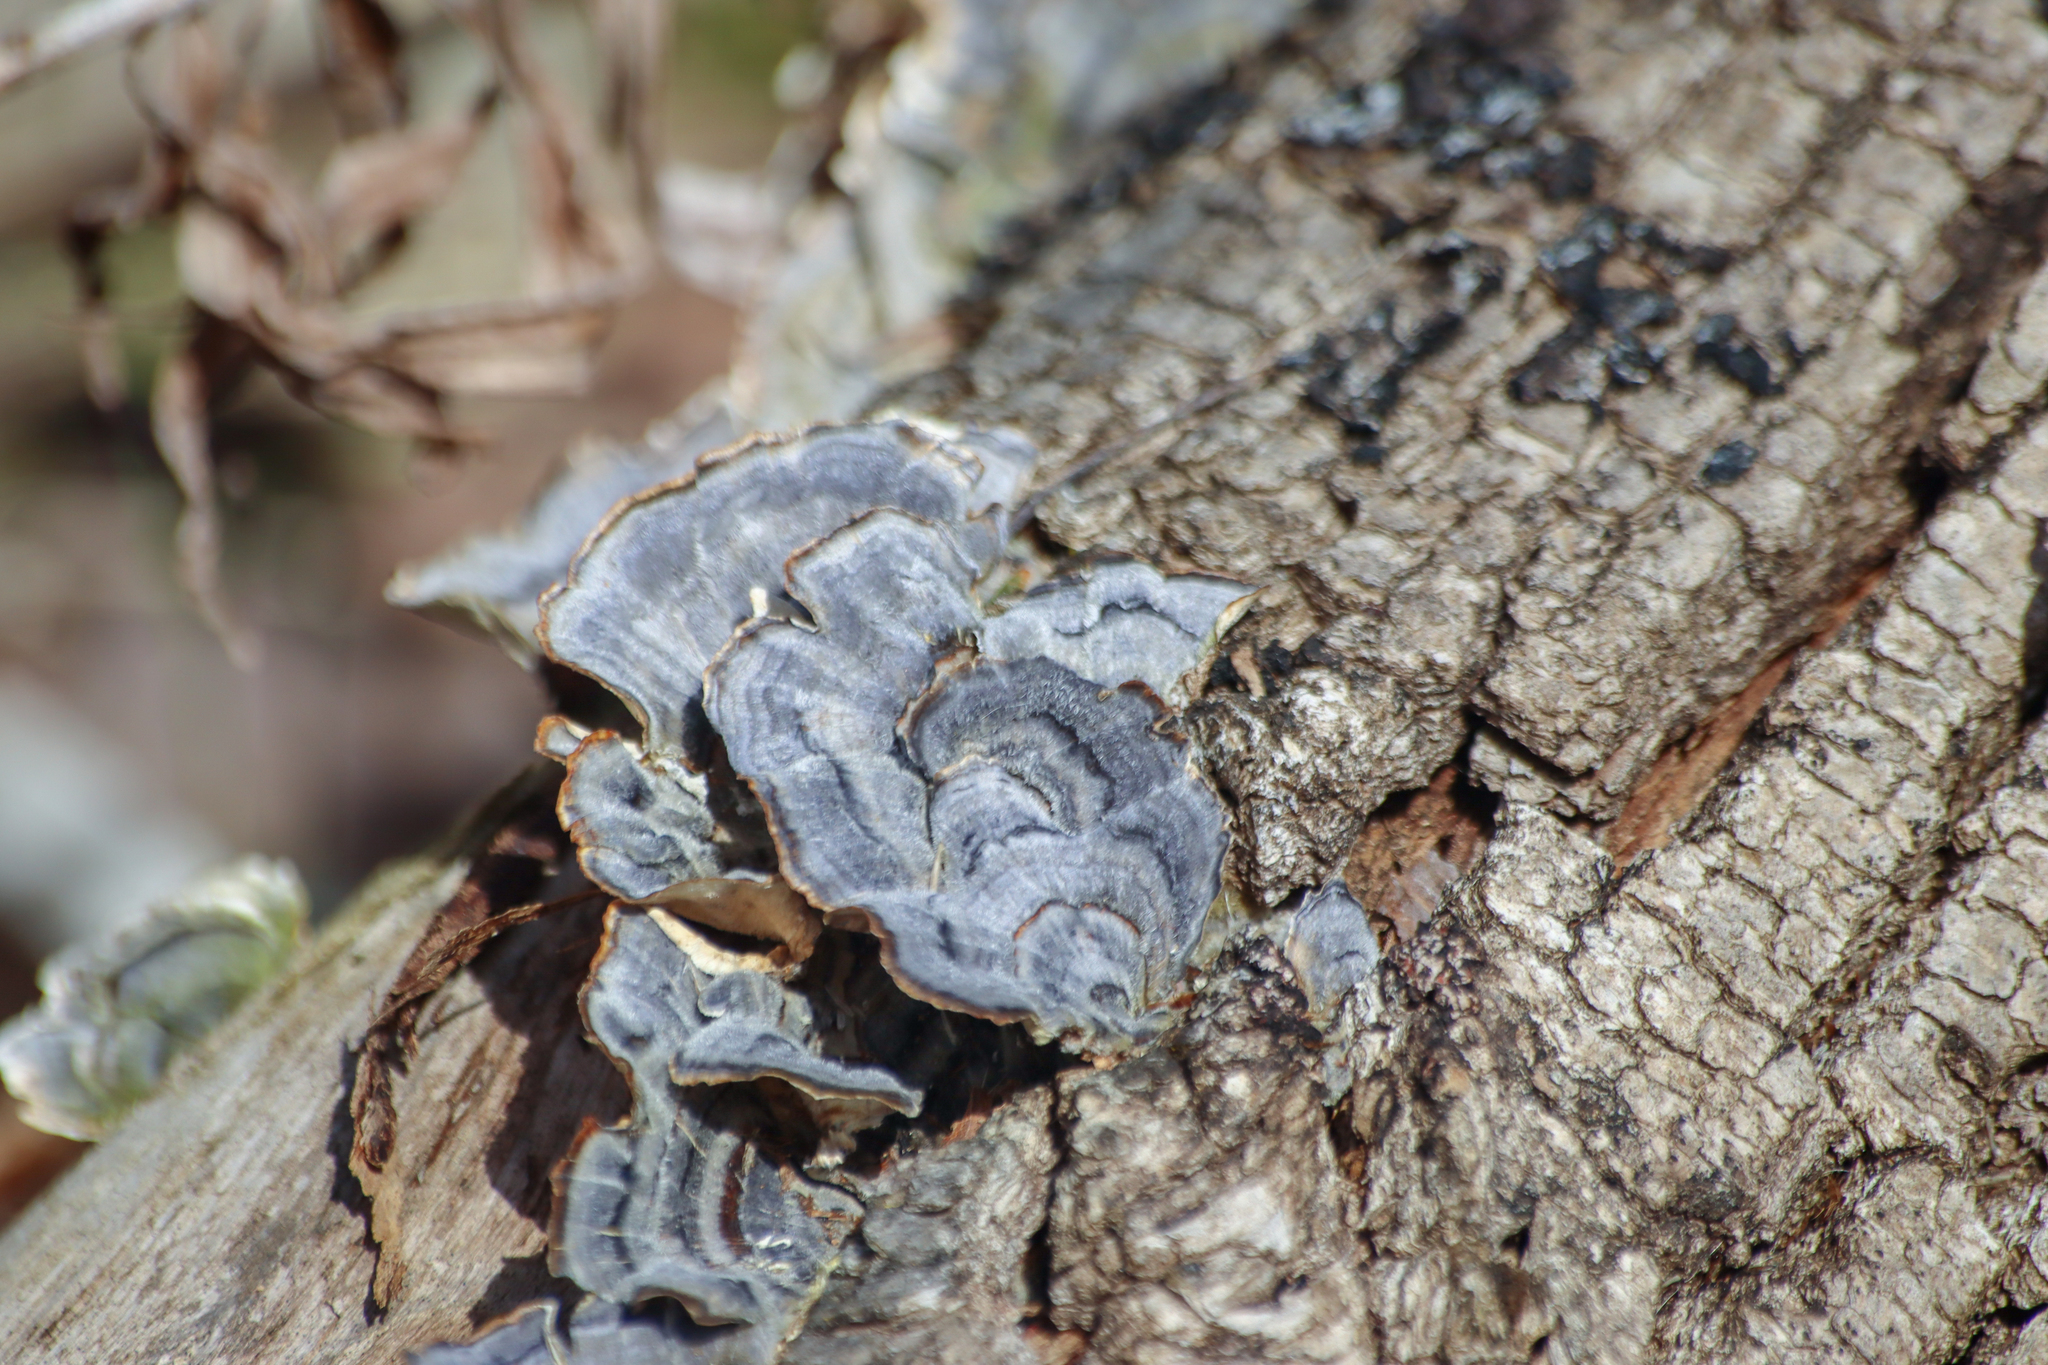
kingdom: Fungi
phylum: Basidiomycota
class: Agaricomycetes
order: Polyporales
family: Polyporaceae
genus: Trametes
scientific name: Trametes versicolor
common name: Turkeytail
